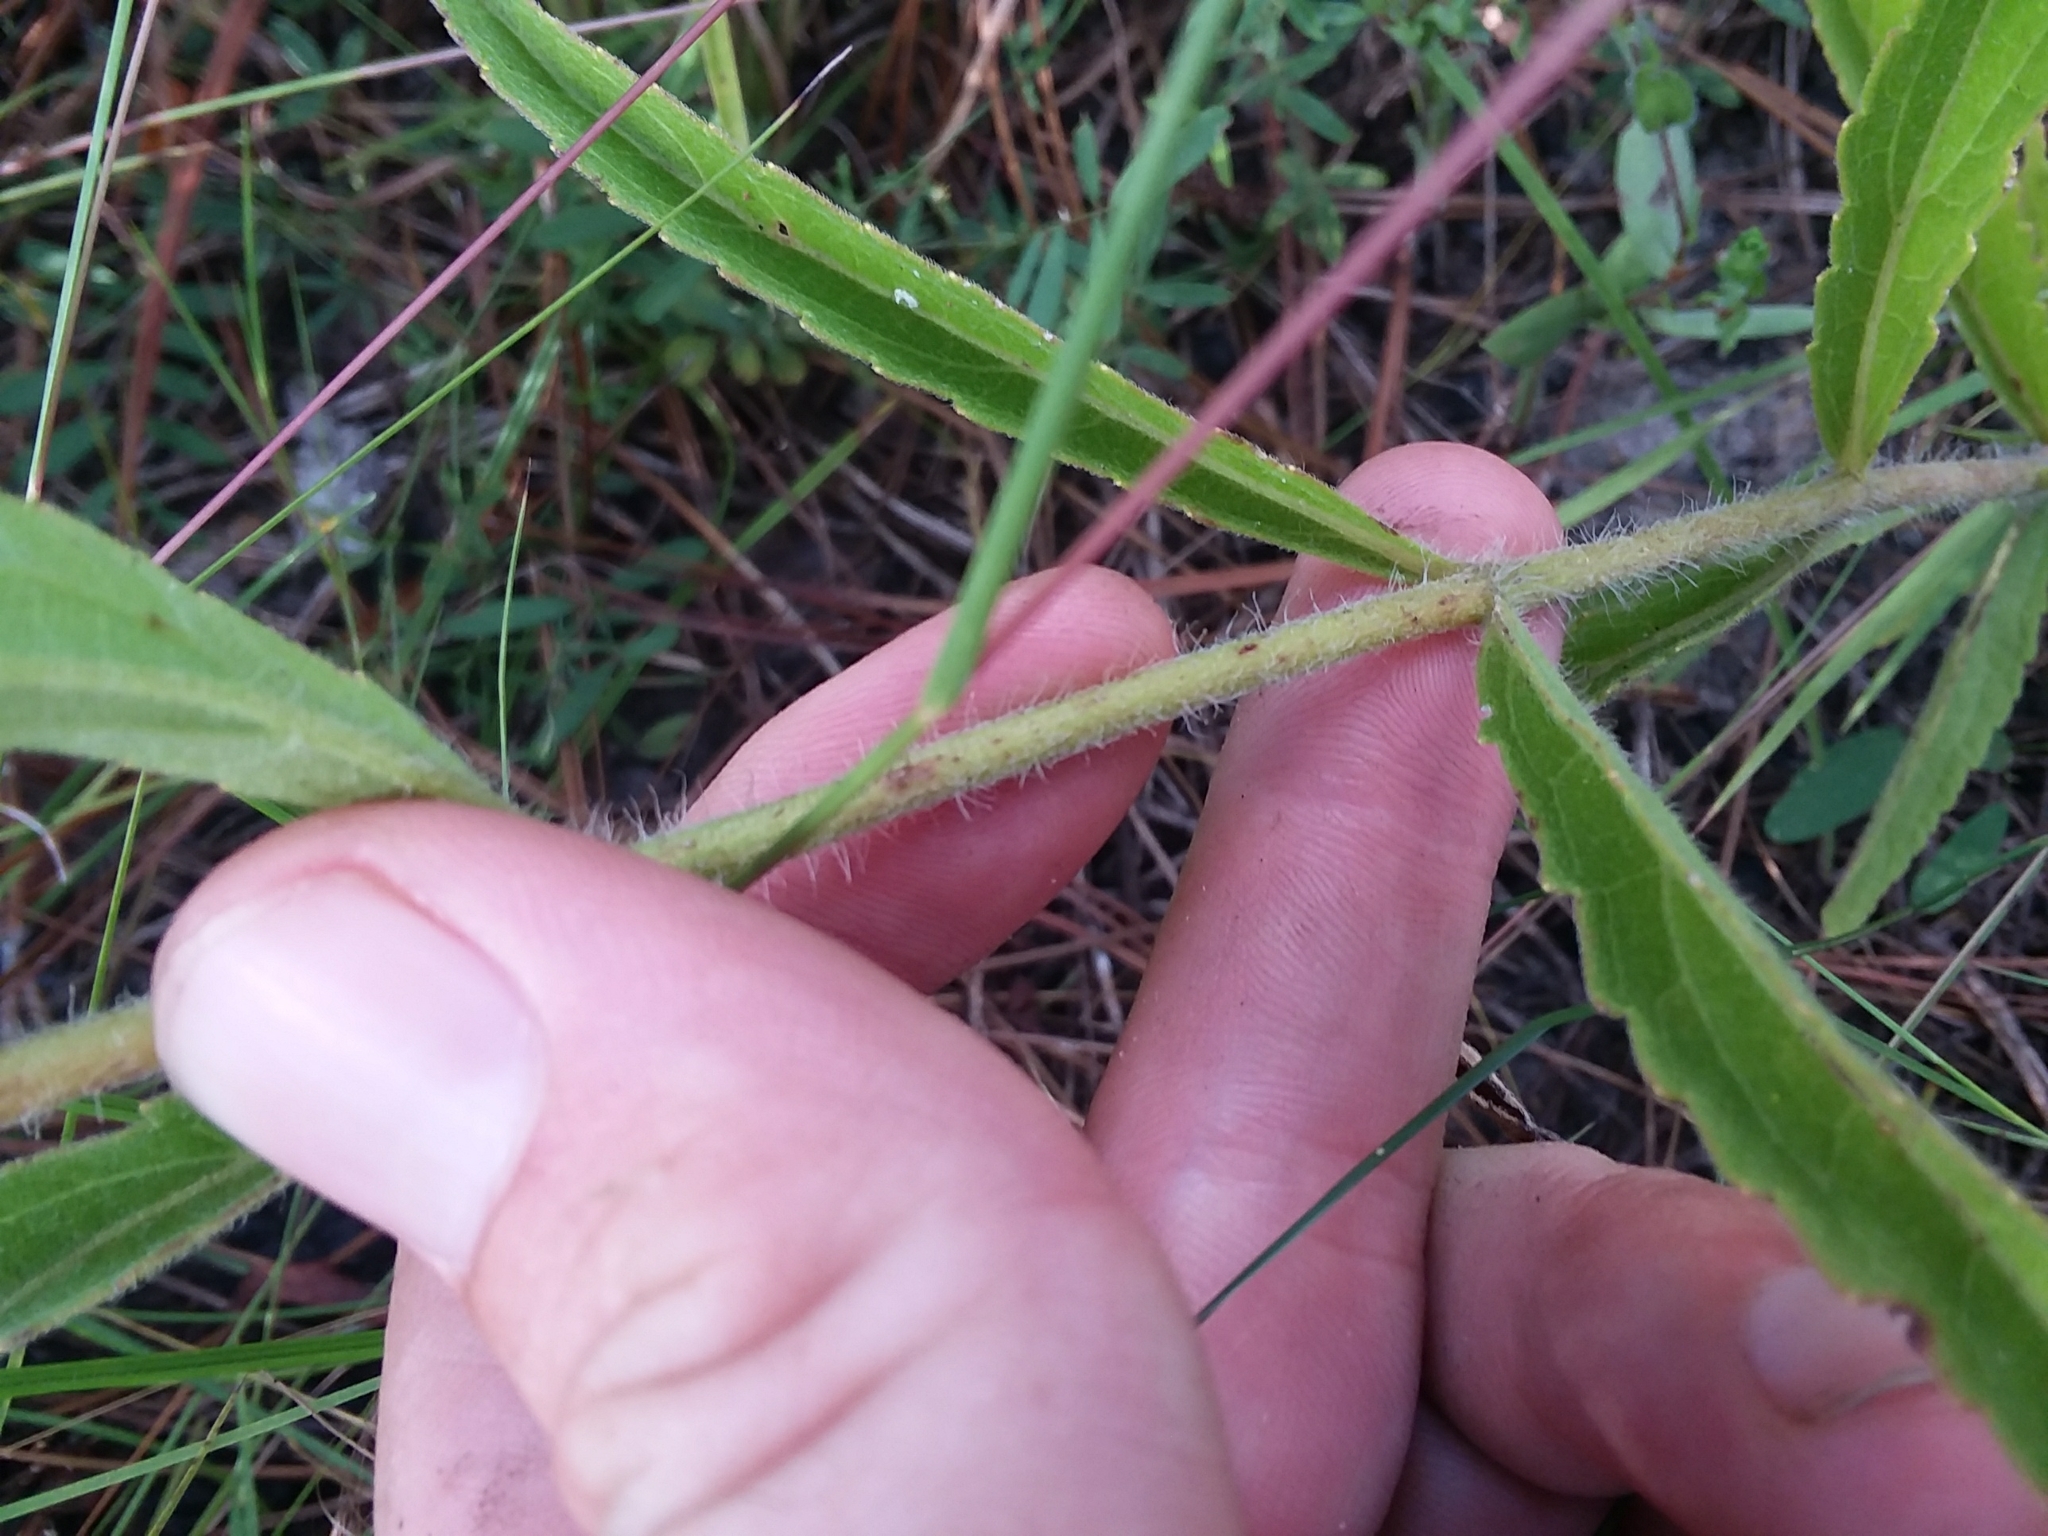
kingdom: Plantae
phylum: Tracheophyta
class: Magnoliopsida
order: Asterales
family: Asteraceae
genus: Eupatorium
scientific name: Eupatorium album
